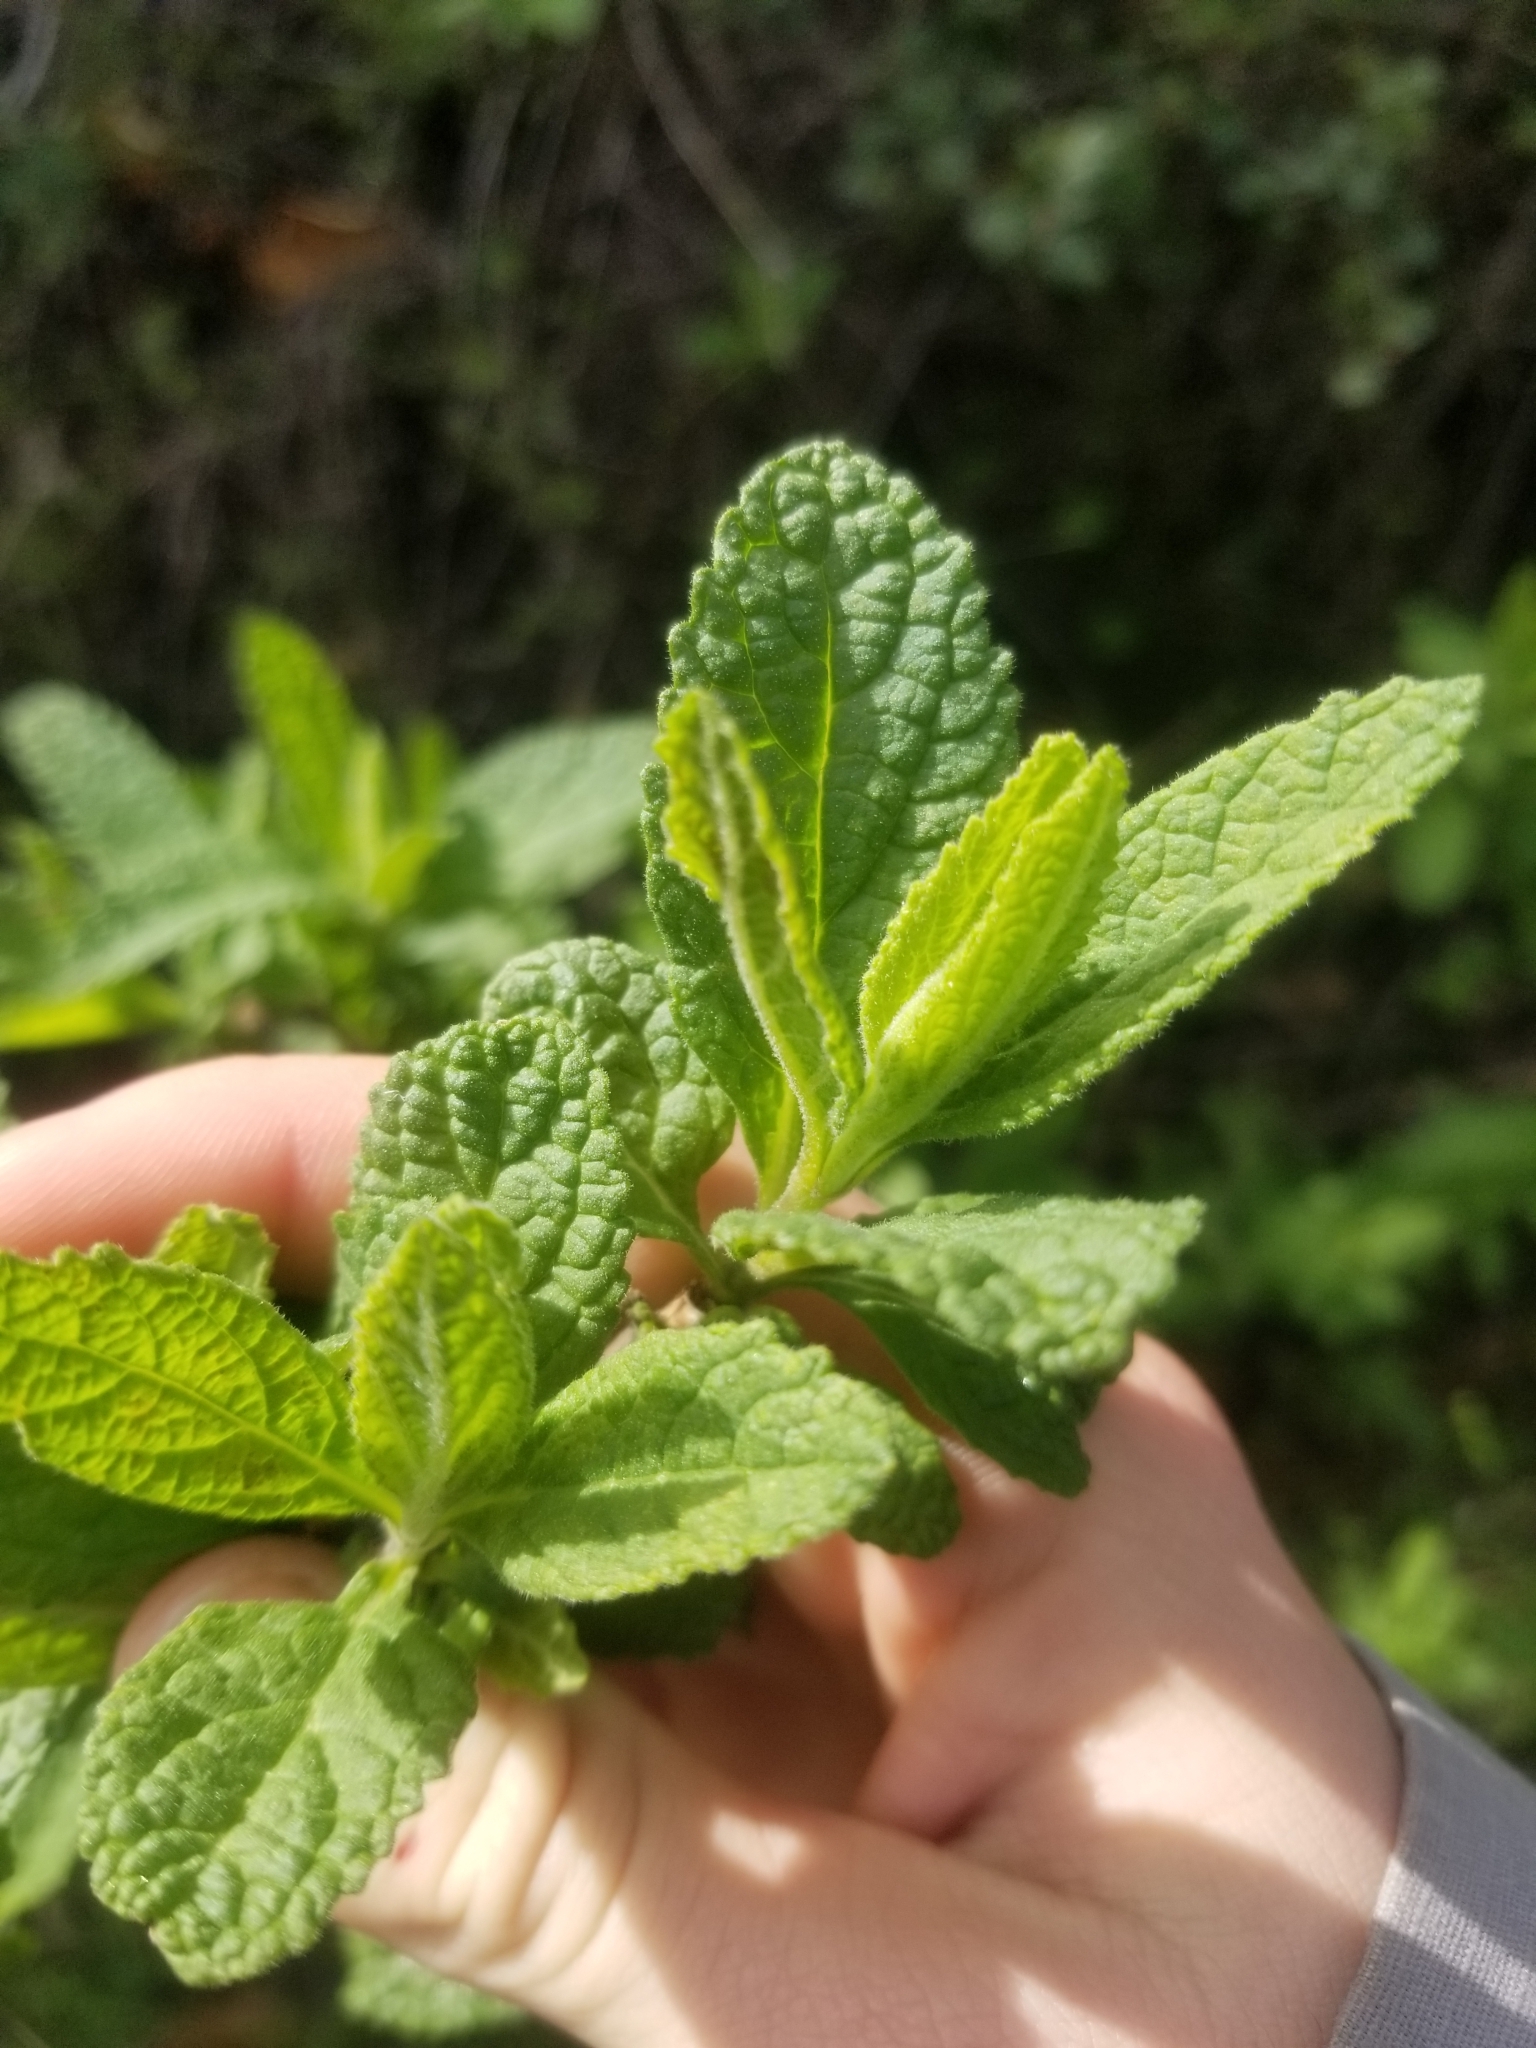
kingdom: Plantae
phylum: Tracheophyta
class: Magnoliopsida
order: Lamiales
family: Lamiaceae
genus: Lepechinia
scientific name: Lepechinia calycina
